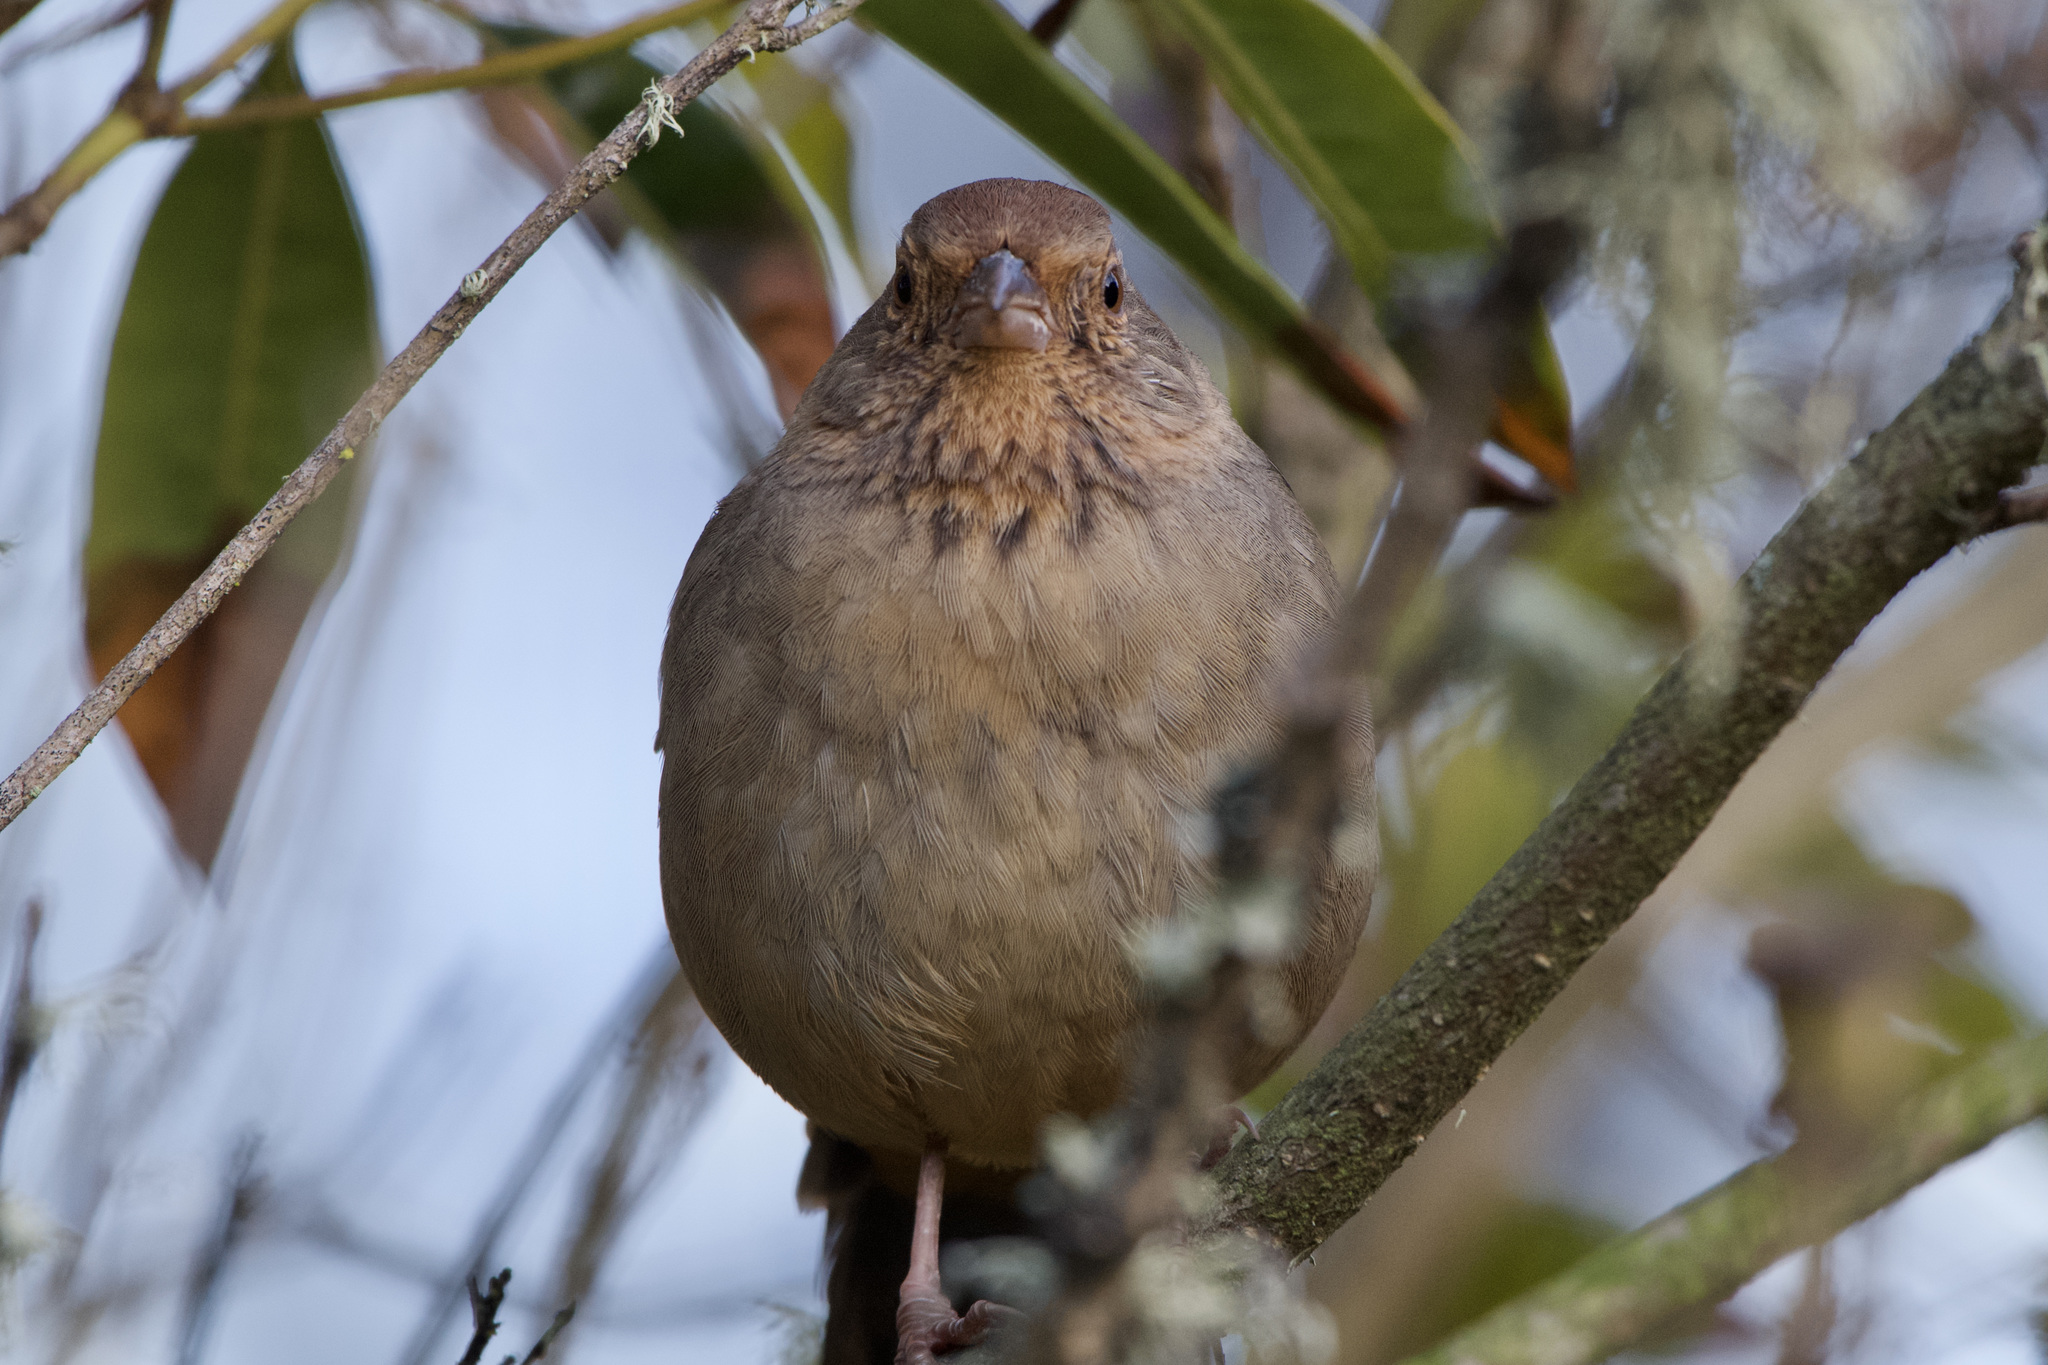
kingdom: Animalia
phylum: Chordata
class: Aves
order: Passeriformes
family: Passerellidae
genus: Melozone
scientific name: Melozone crissalis
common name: California towhee
